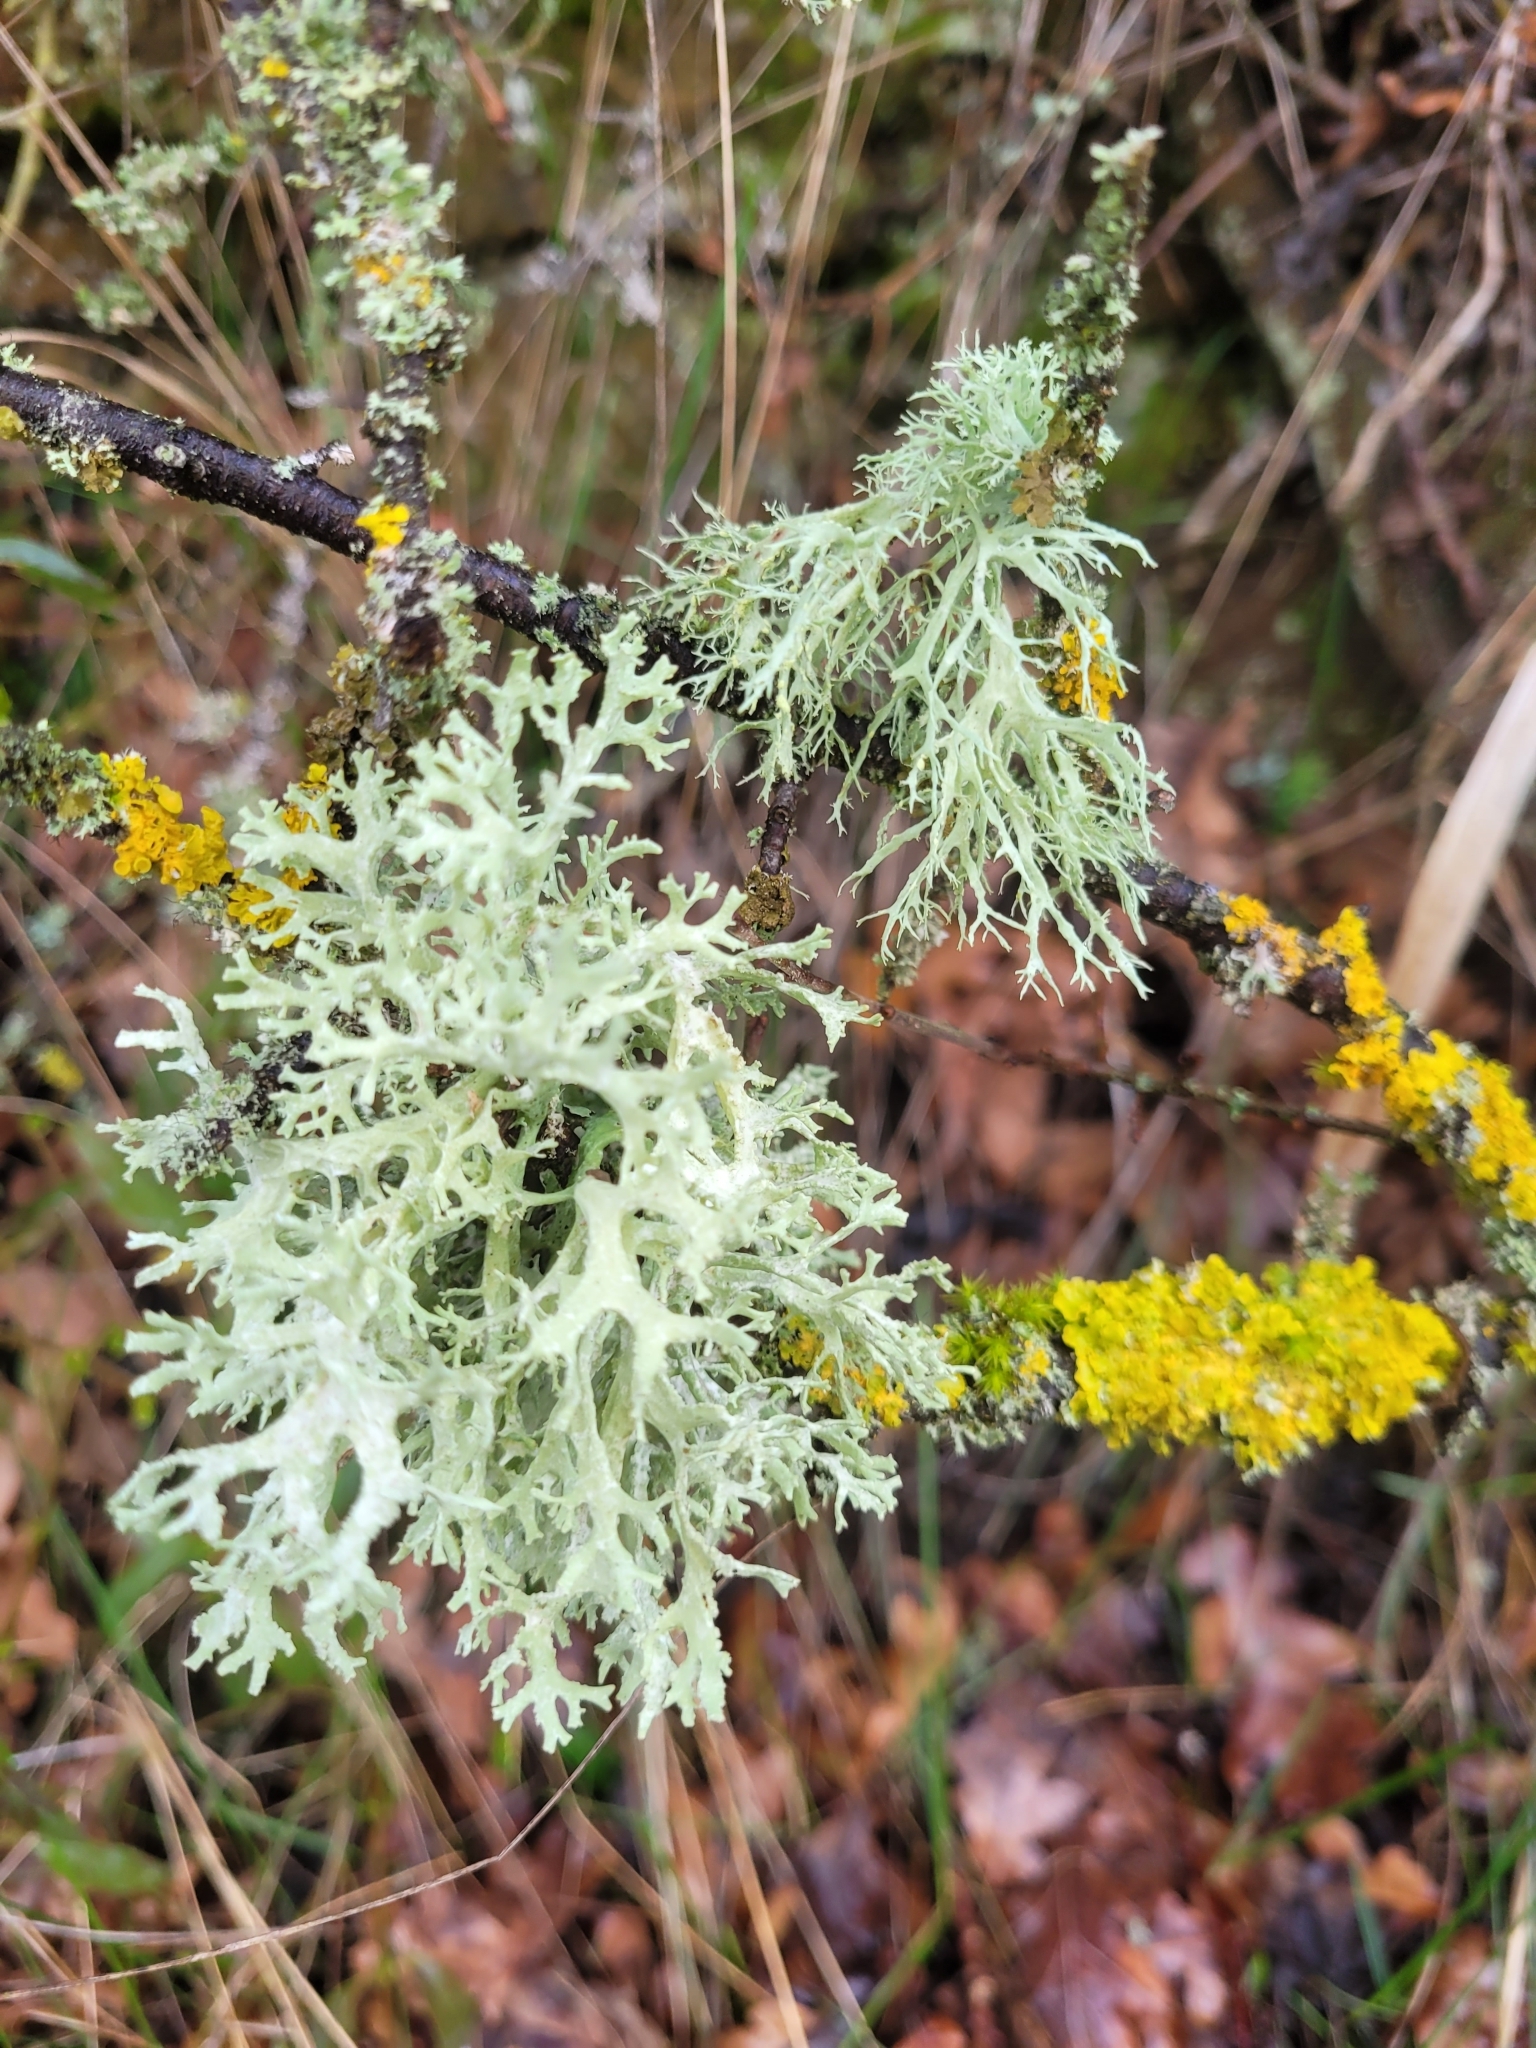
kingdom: Fungi
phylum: Ascomycota
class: Lecanoromycetes
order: Lecanorales
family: Parmeliaceae
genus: Evernia
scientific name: Evernia prunastri
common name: Oak moss
